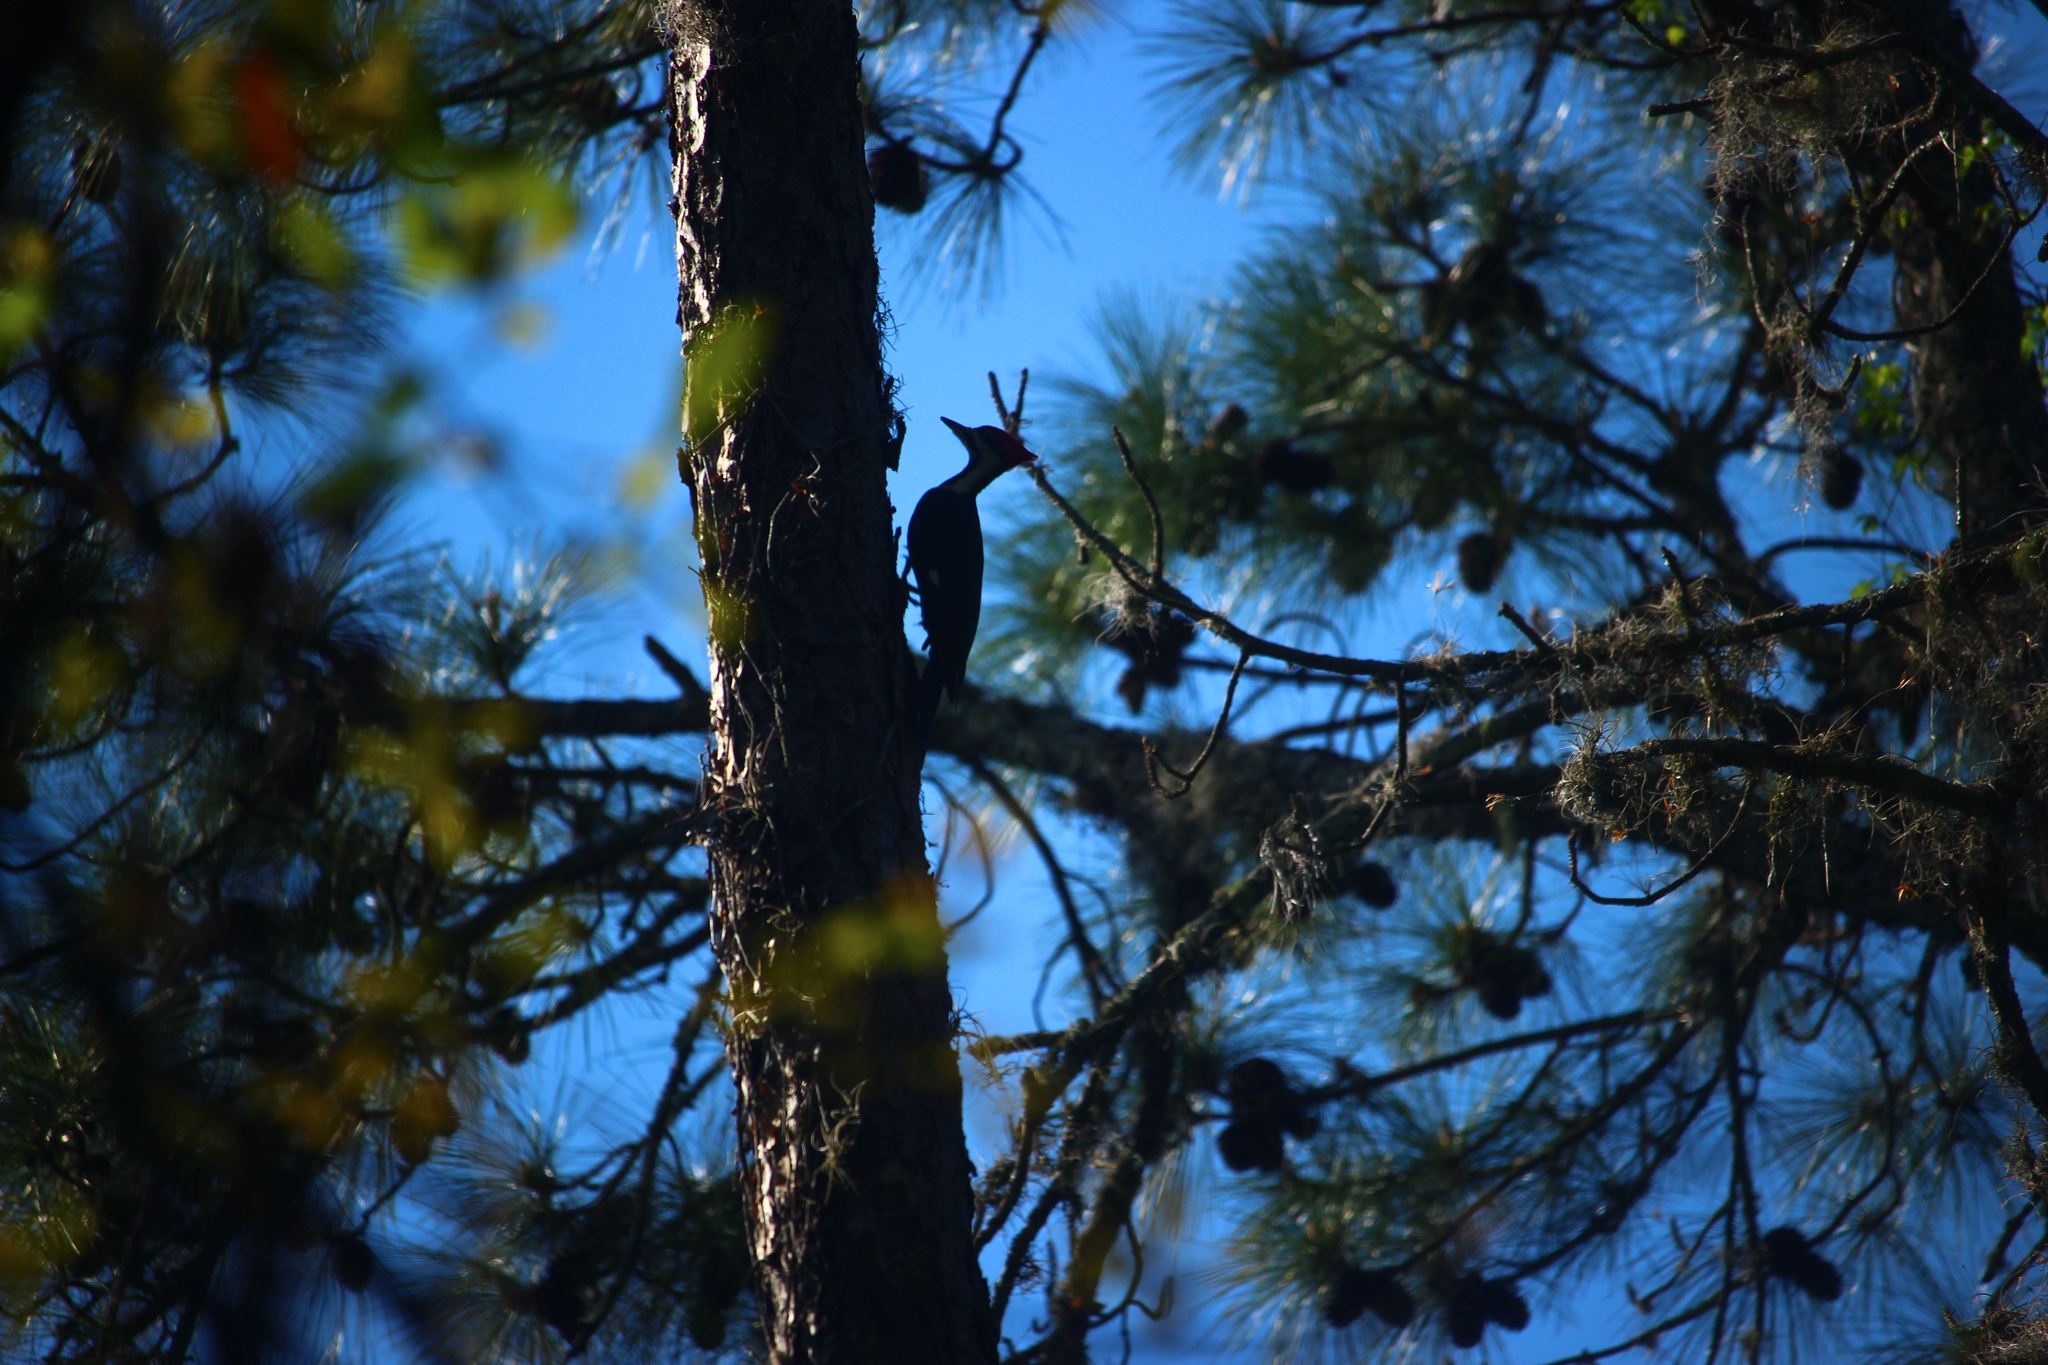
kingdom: Animalia
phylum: Chordata
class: Aves
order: Piciformes
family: Picidae
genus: Dryocopus
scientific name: Dryocopus pileatus
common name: Pileated woodpecker
